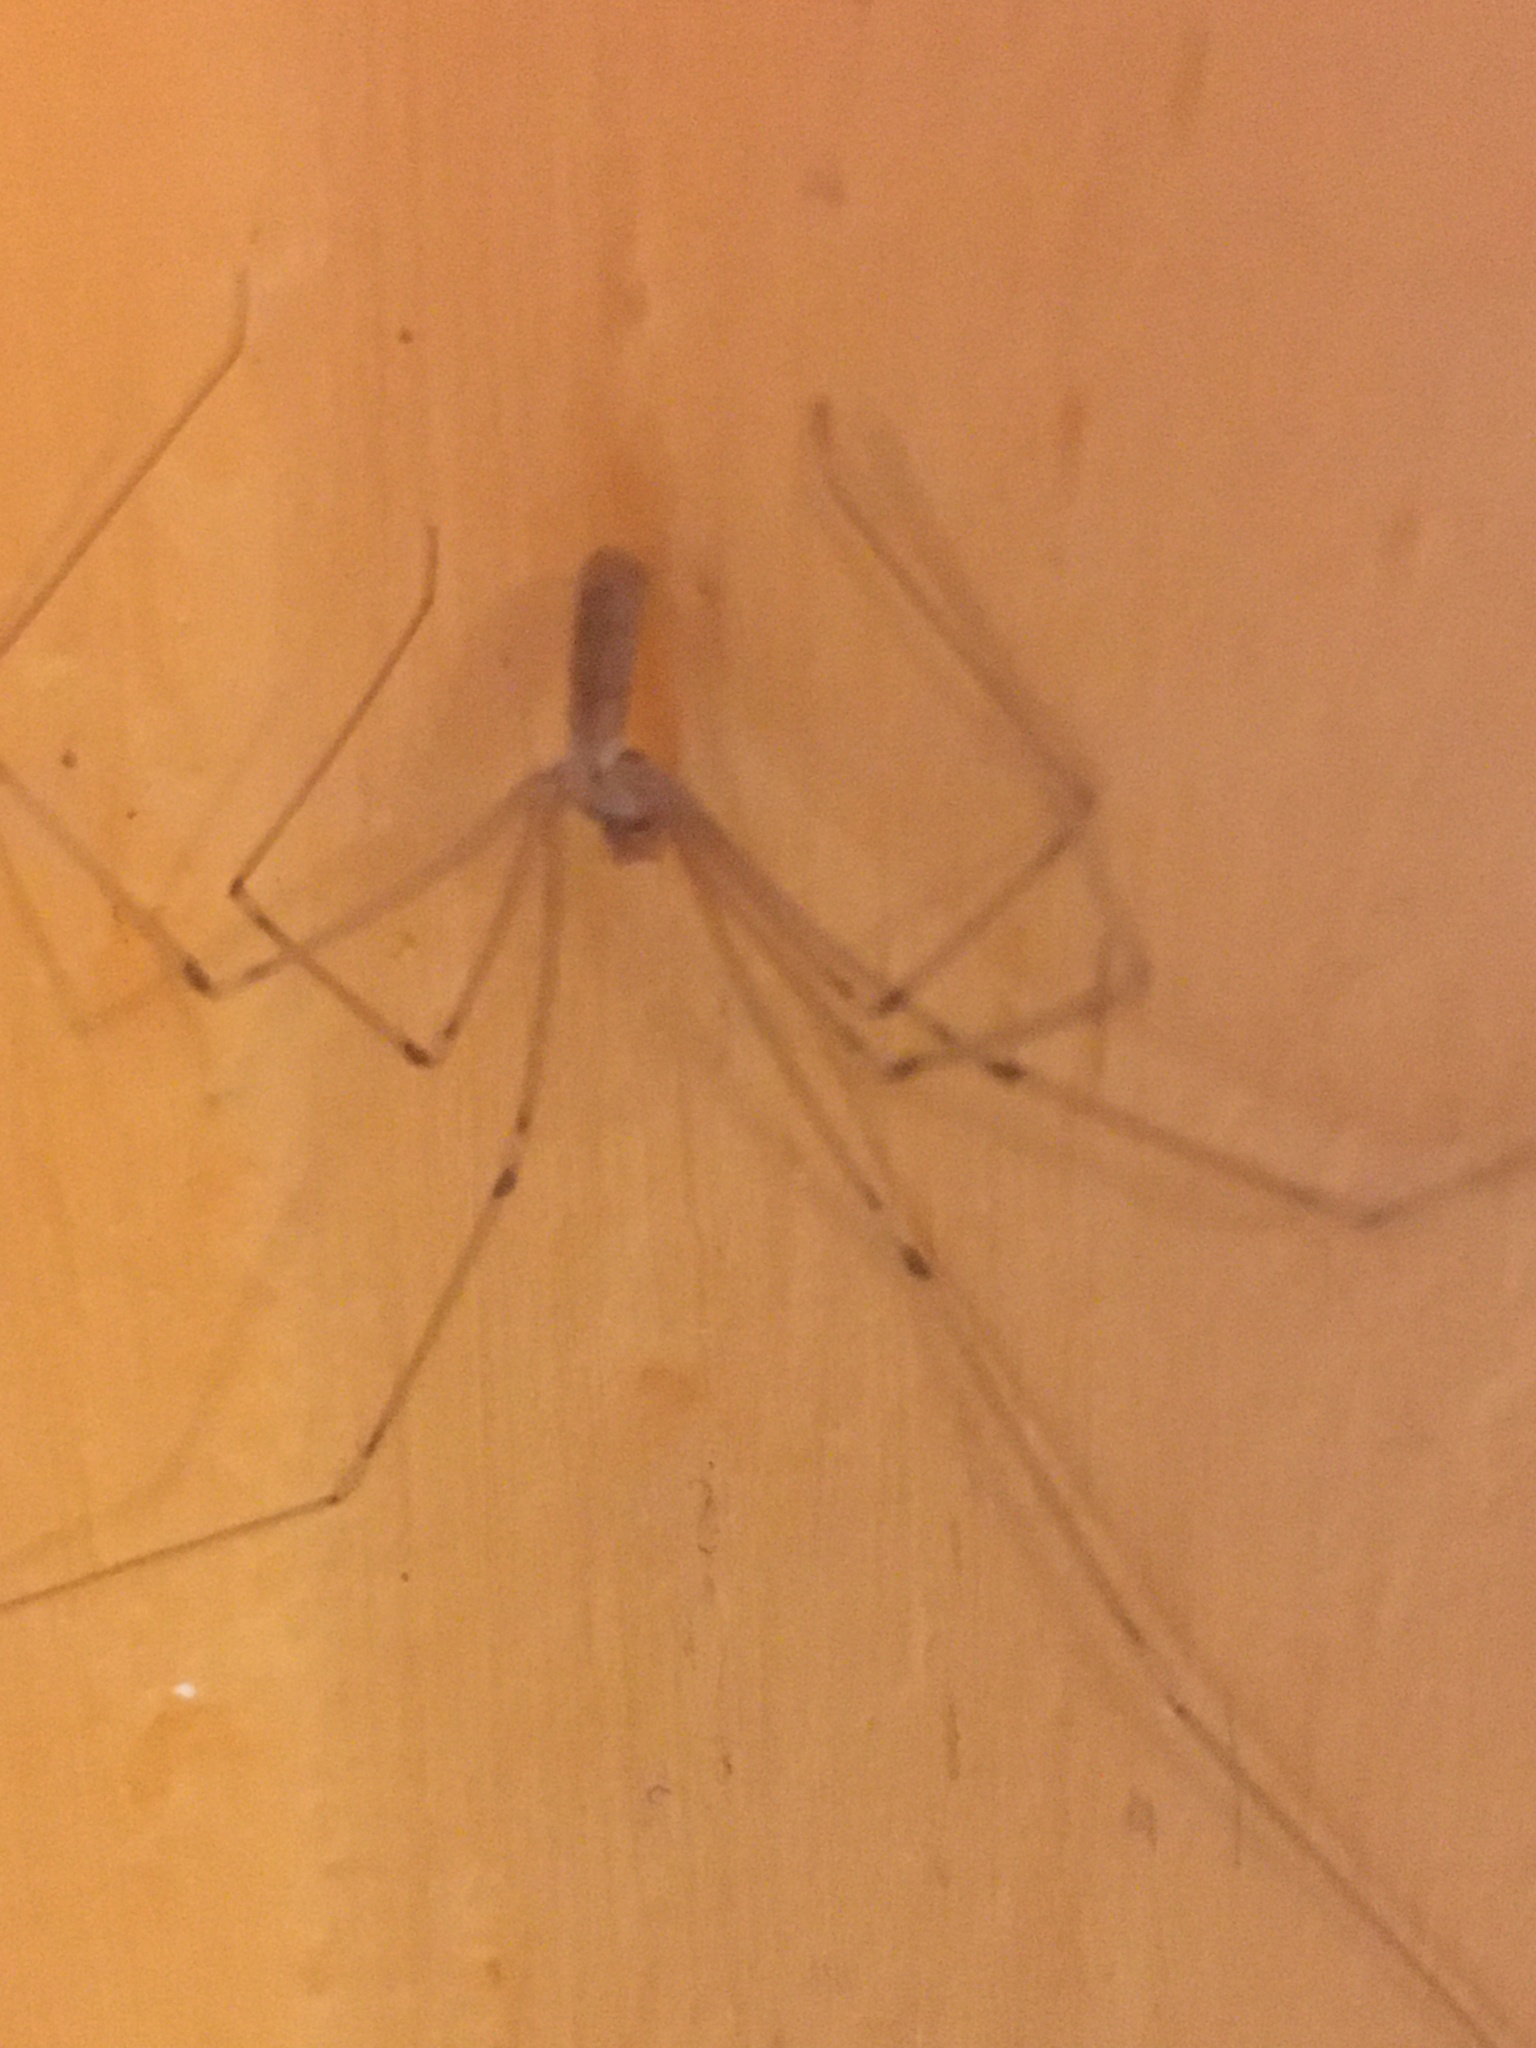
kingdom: Animalia
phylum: Arthropoda
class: Arachnida
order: Araneae
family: Pholcidae
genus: Pholcus
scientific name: Pholcus phalangioides
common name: Longbodied cellar spider
